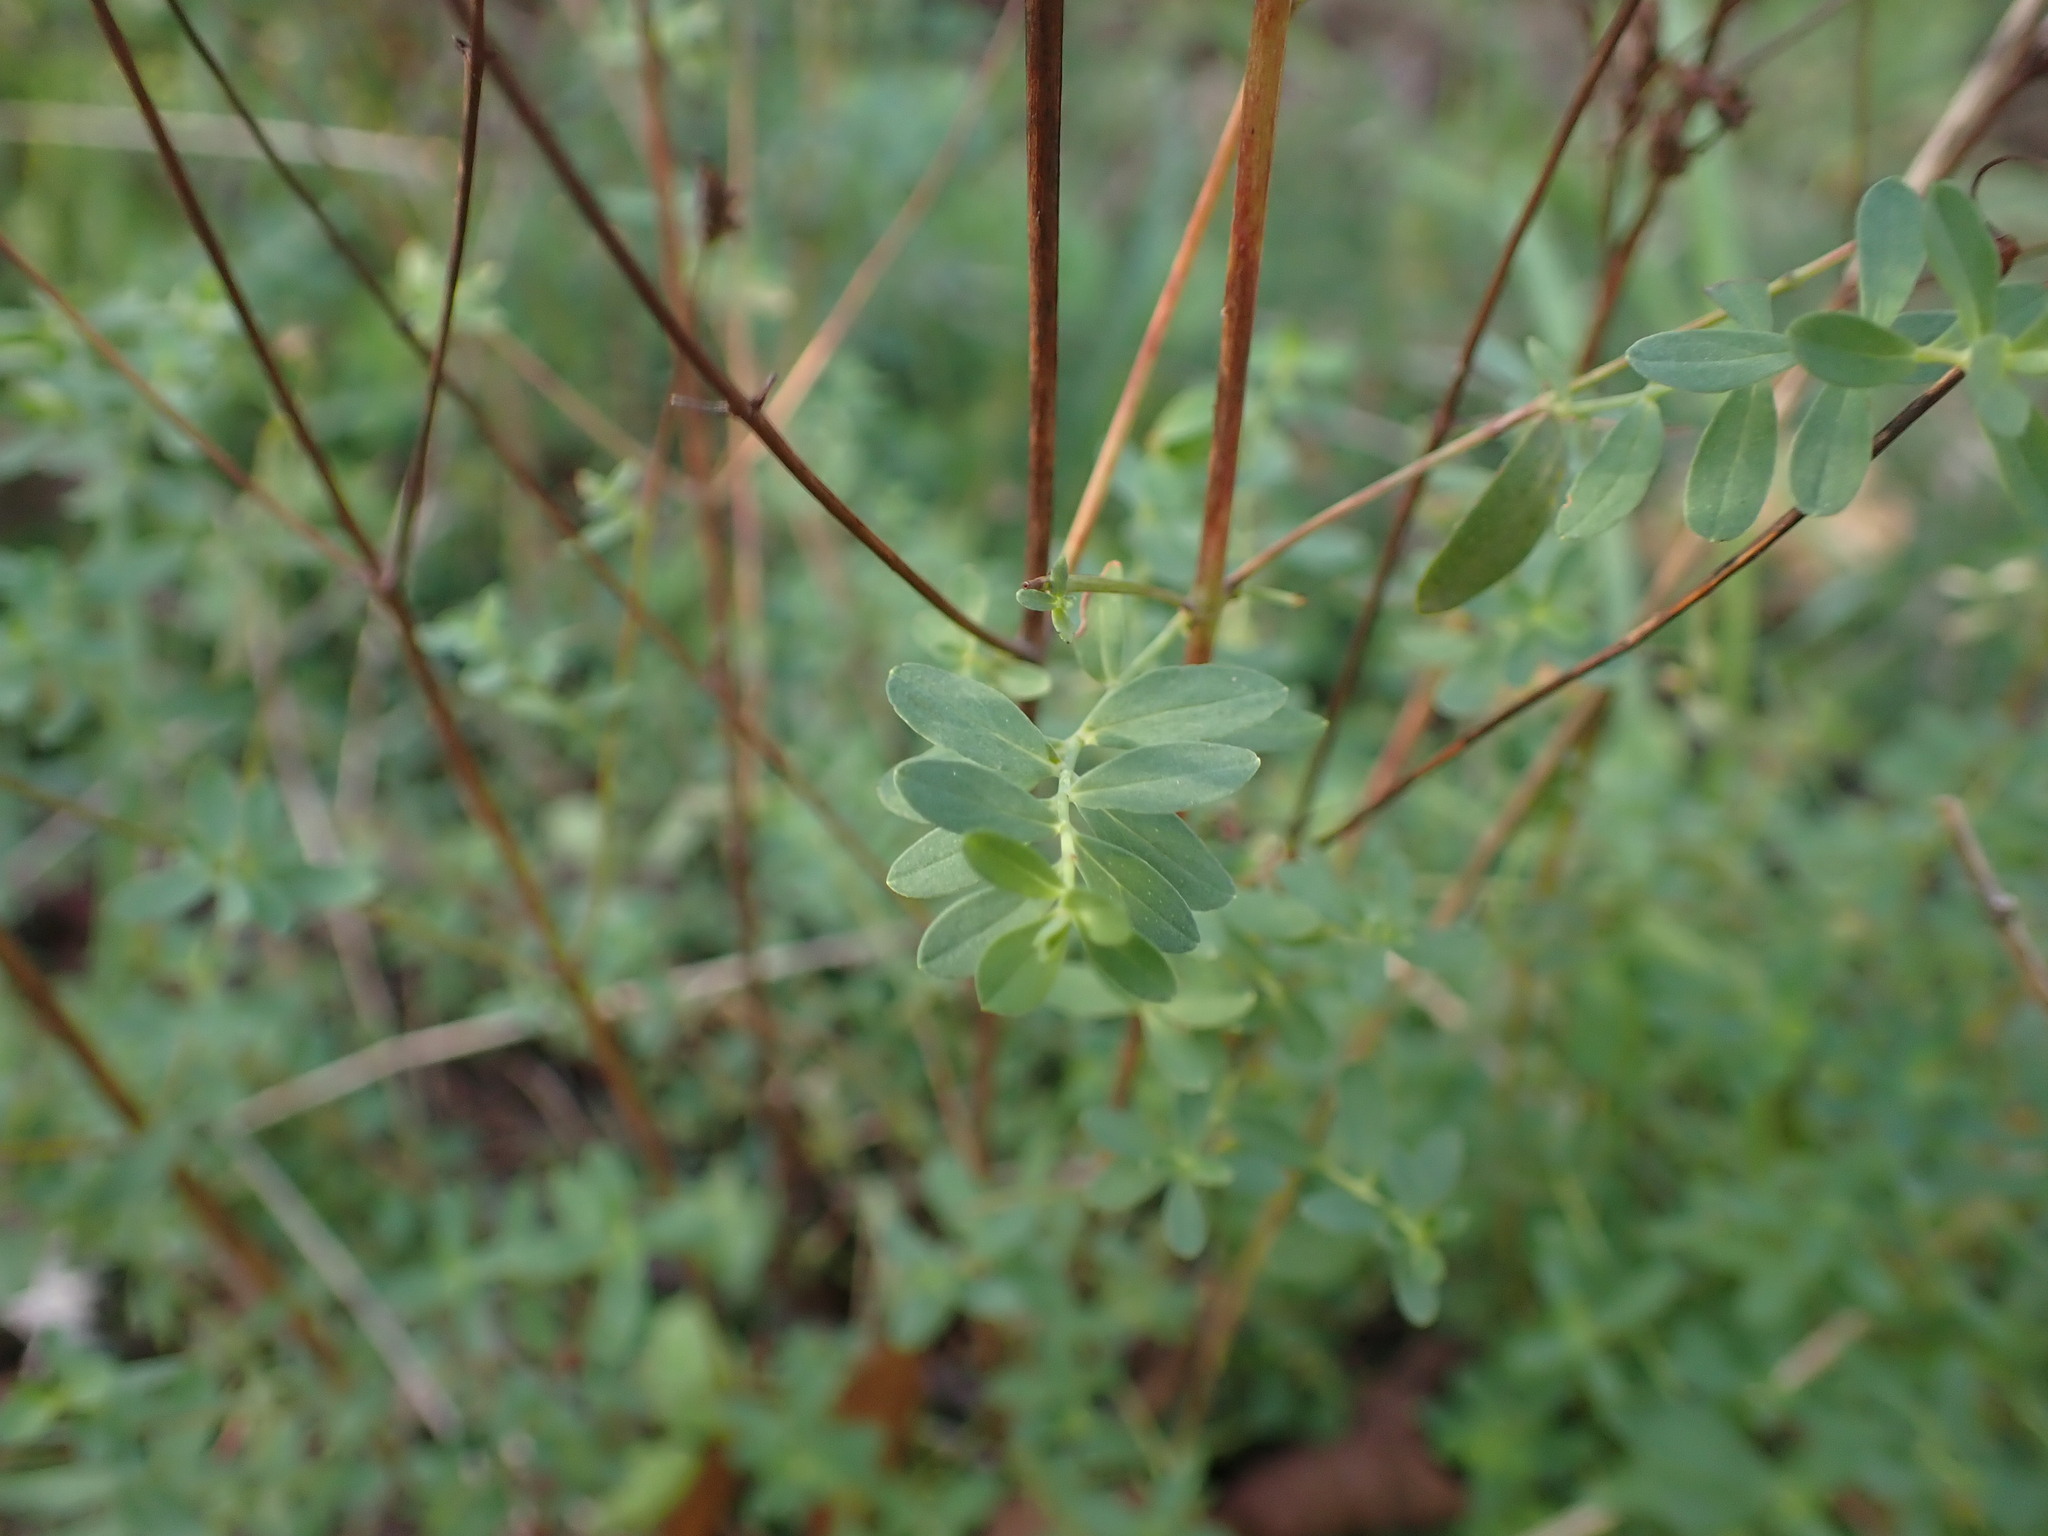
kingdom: Plantae
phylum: Tracheophyta
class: Magnoliopsida
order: Malpighiales
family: Hypericaceae
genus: Hypericum
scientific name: Hypericum perforatum
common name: Common st. johnswort
